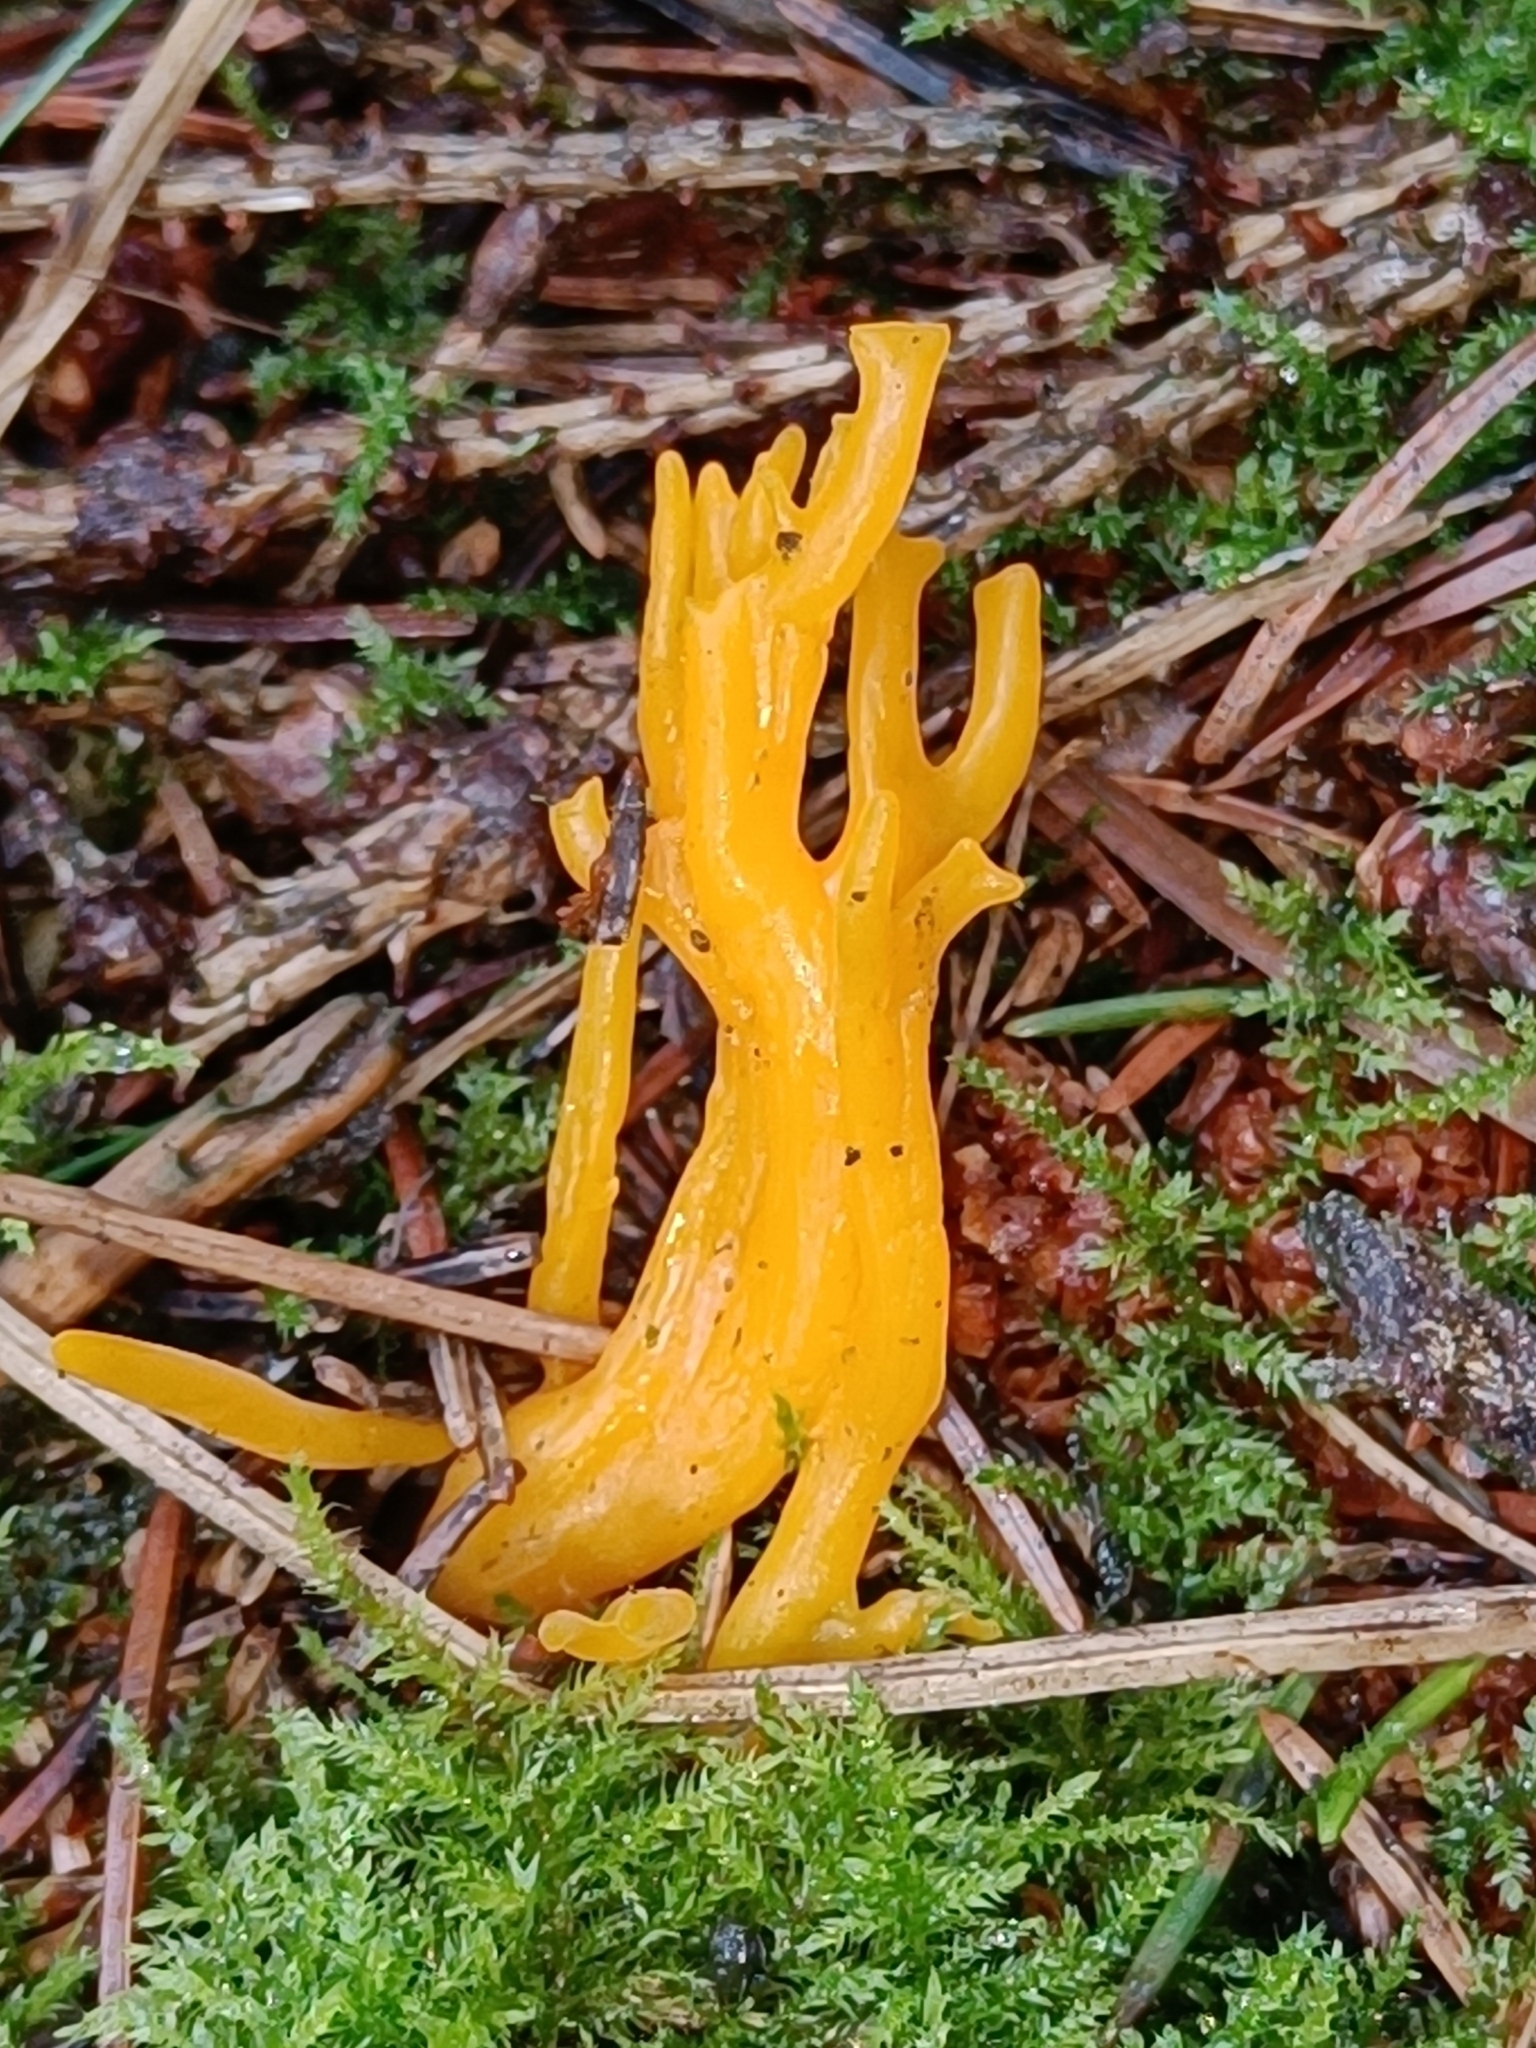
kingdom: Fungi
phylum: Basidiomycota
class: Dacrymycetes
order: Dacrymycetales
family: Dacrymycetaceae
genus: Calocera
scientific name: Calocera viscosa
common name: Yellow stagshorn
